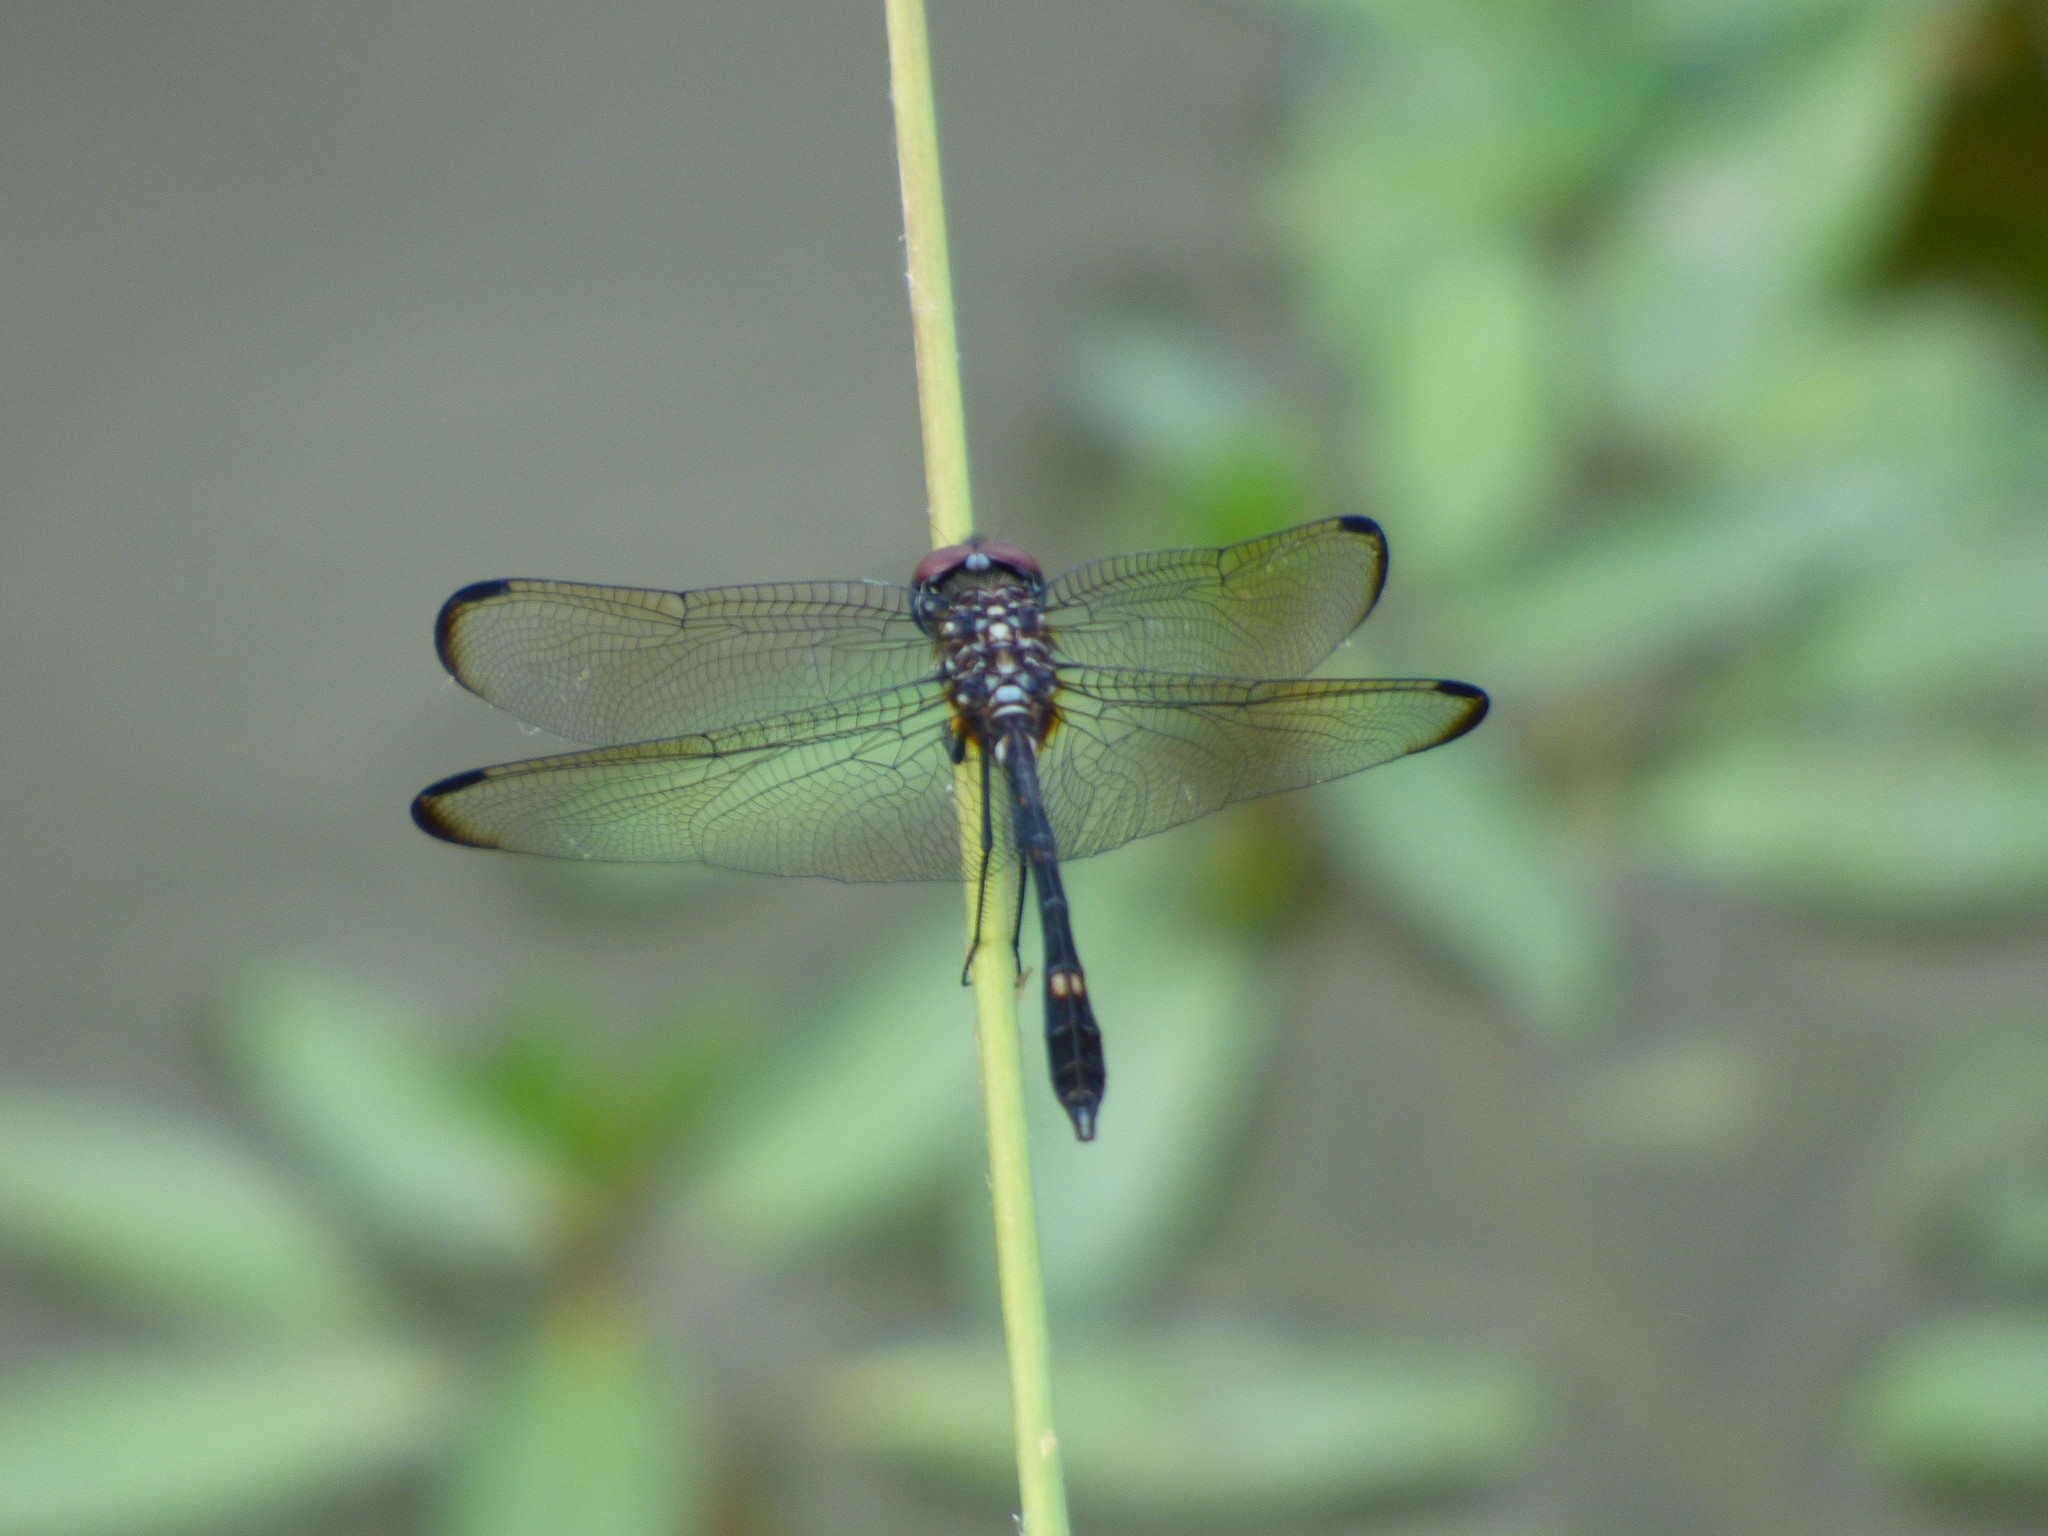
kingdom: Animalia
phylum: Arthropoda
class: Insecta
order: Odonata
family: Libellulidae
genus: Dythemis
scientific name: Dythemis velox
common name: Swift setwing
